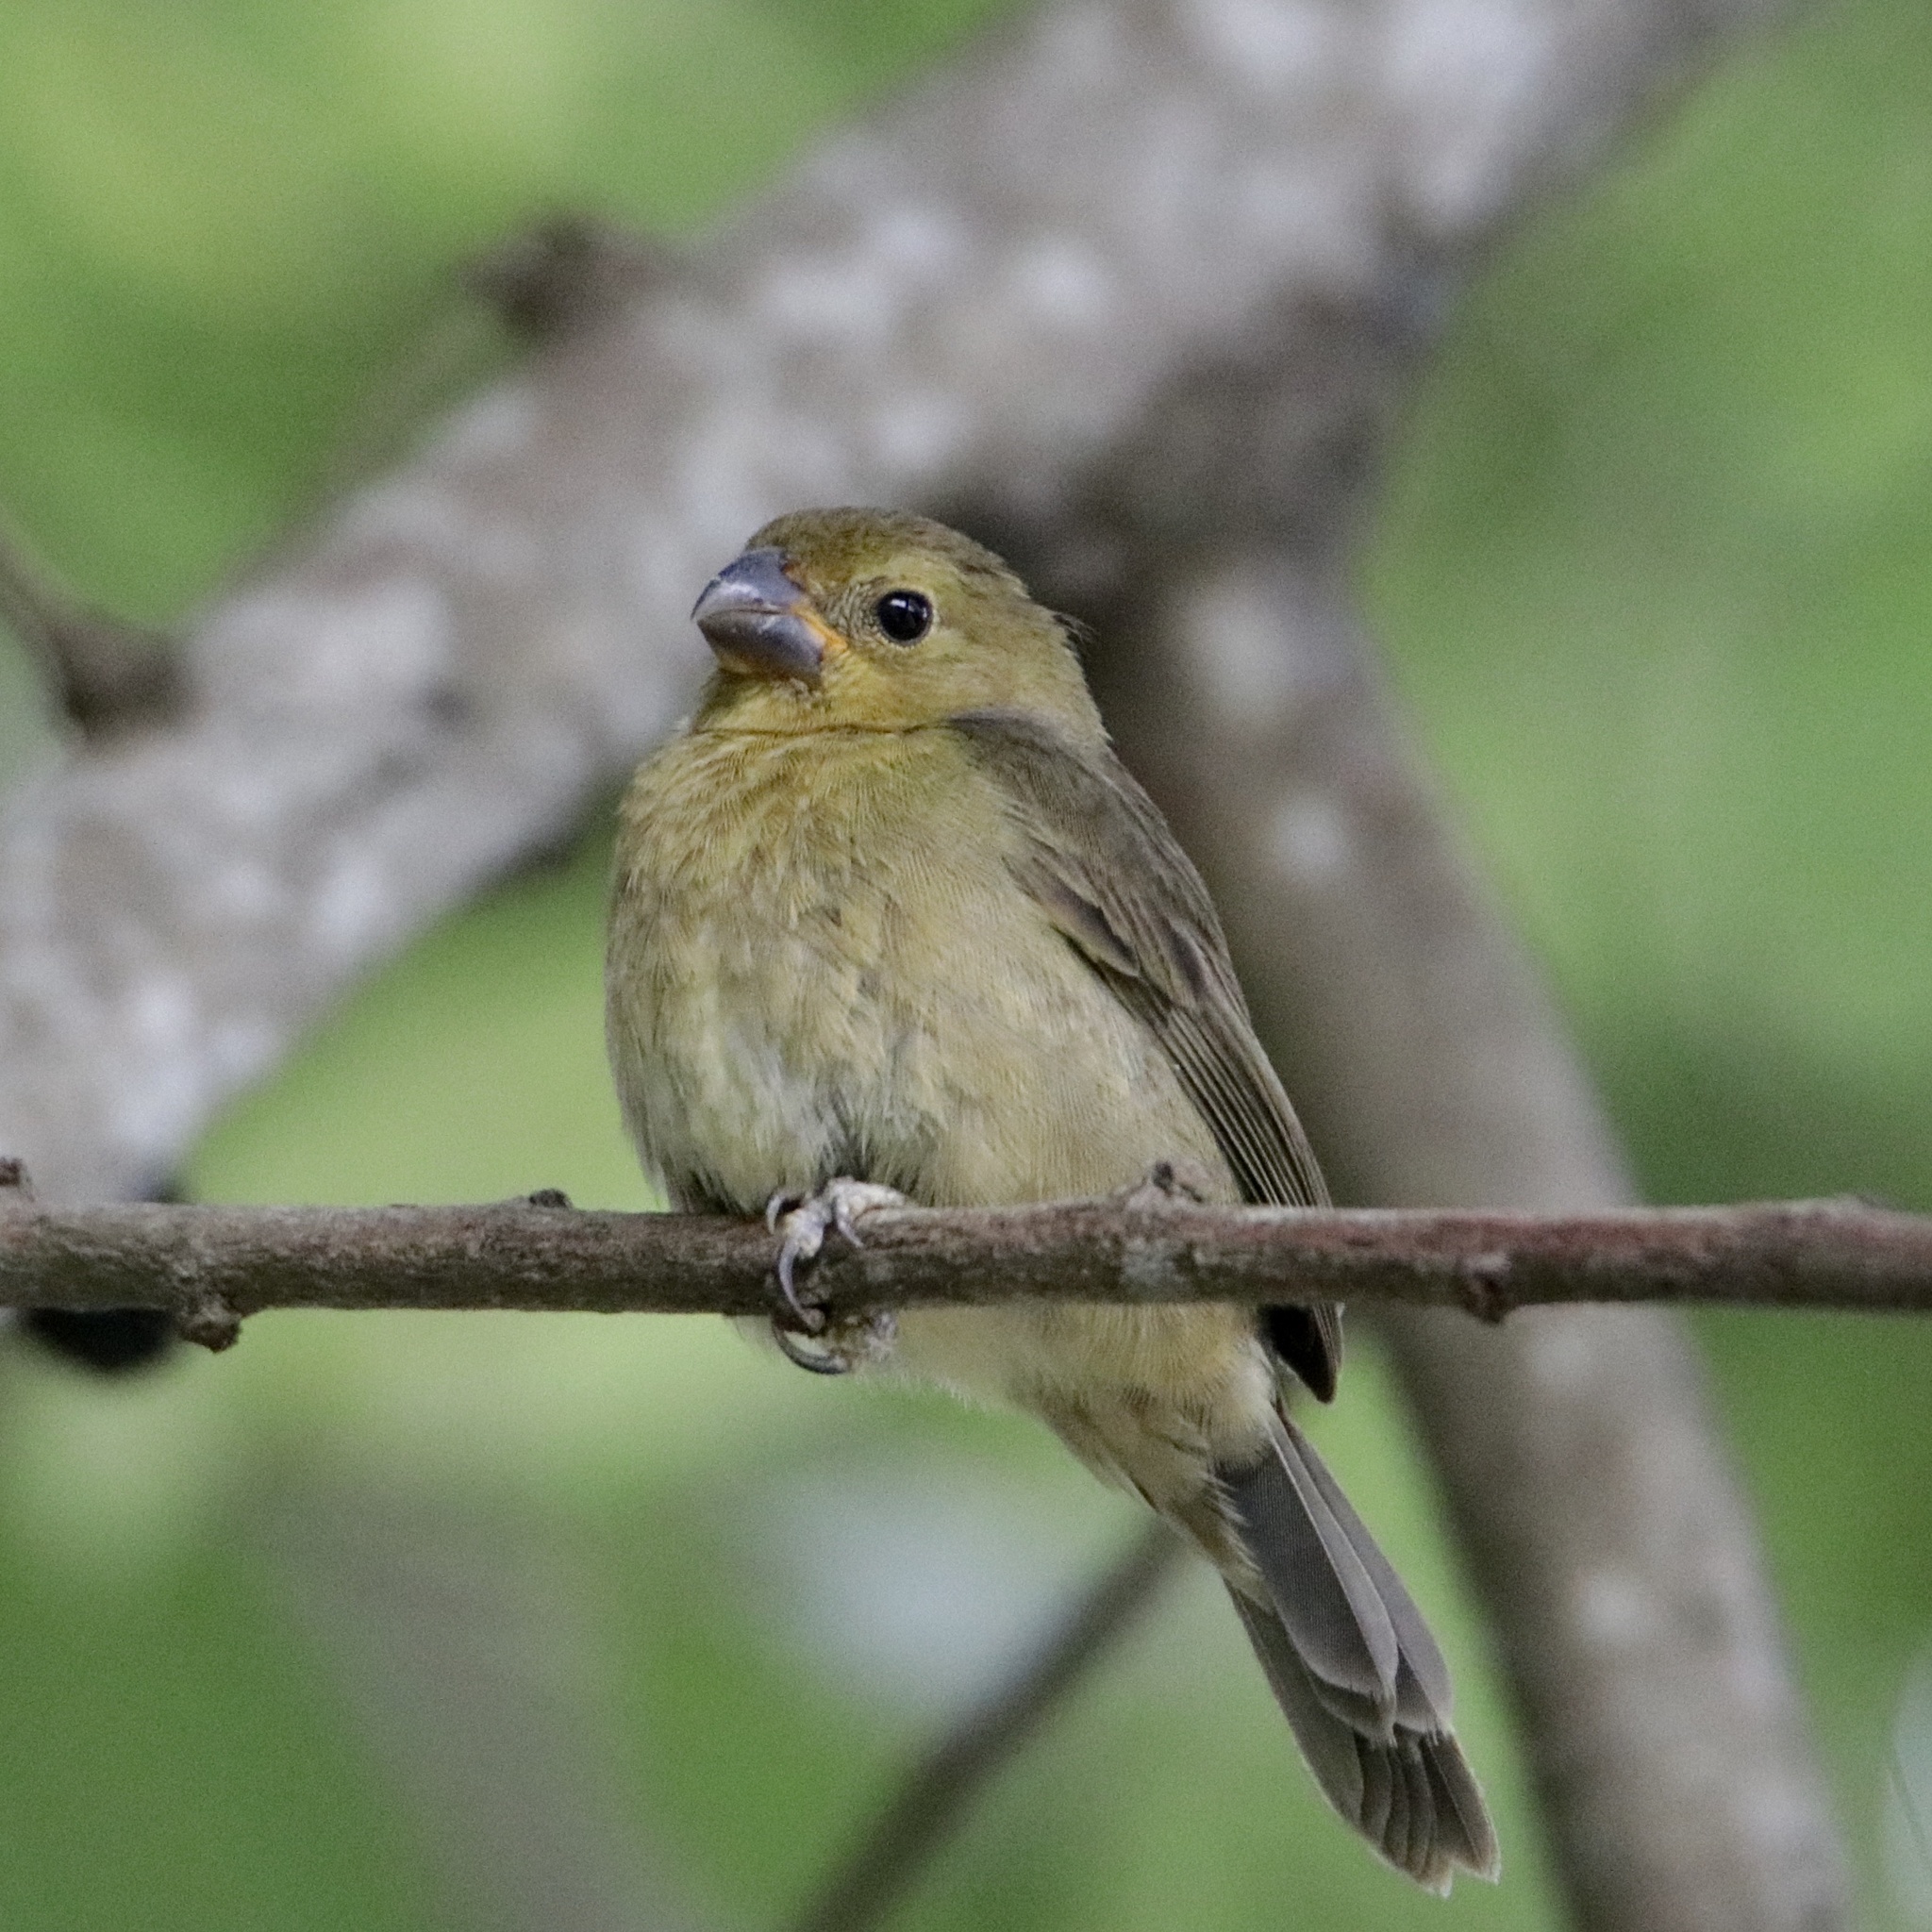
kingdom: Animalia
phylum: Chordata
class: Aves
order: Passeriformes
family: Thraupidae
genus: Sporophila
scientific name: Sporophila corvina
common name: Variable seedeater
